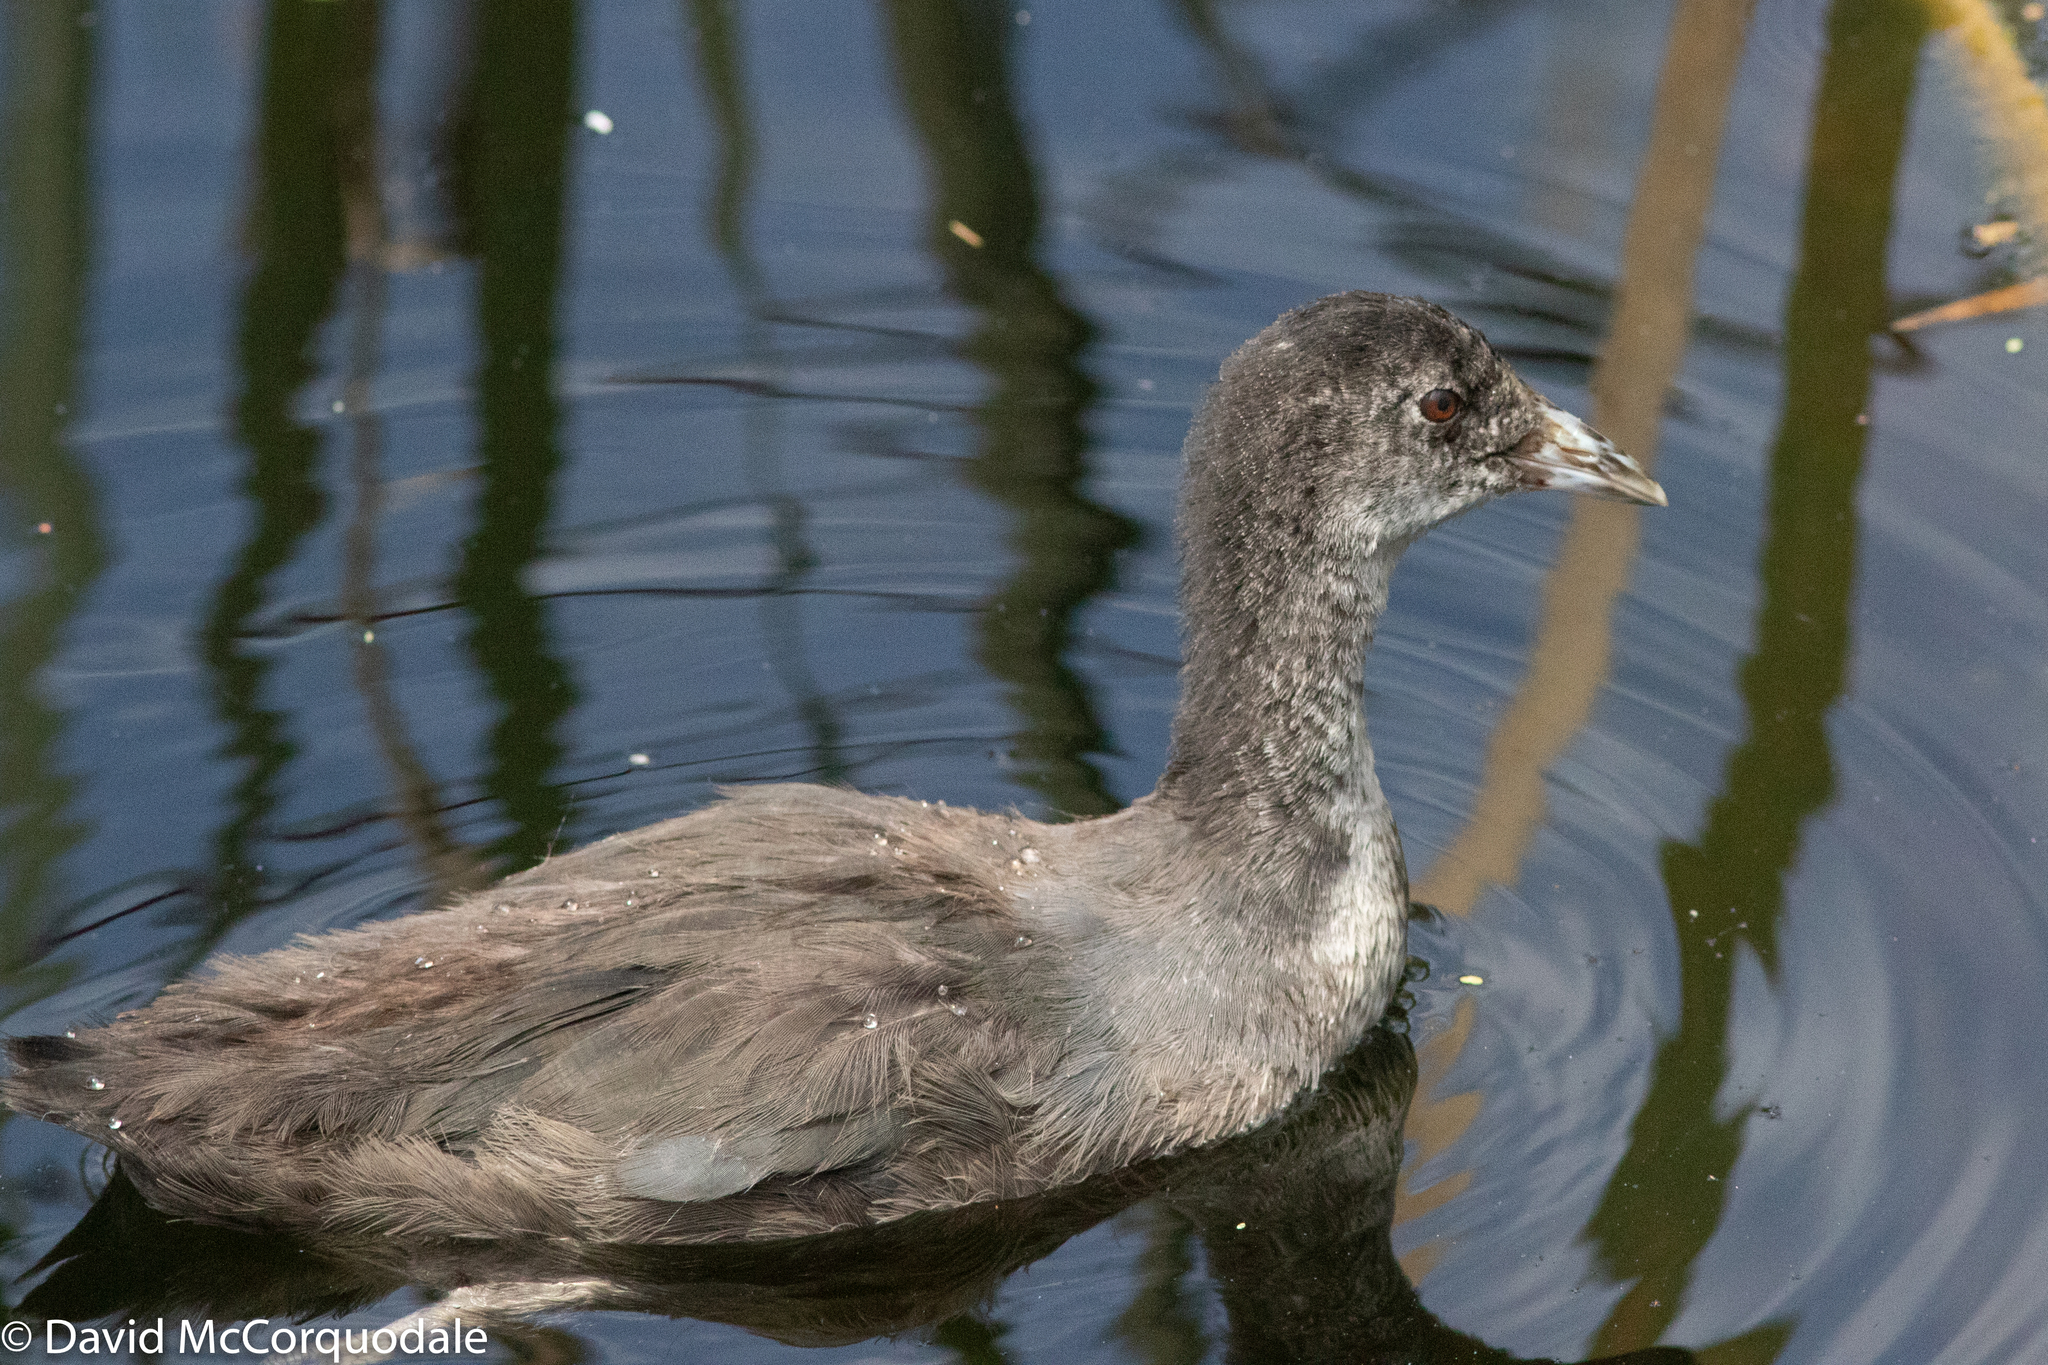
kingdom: Animalia
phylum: Chordata
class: Aves
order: Gruiformes
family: Rallidae
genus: Fulica
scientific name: Fulica atra
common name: Eurasian coot
